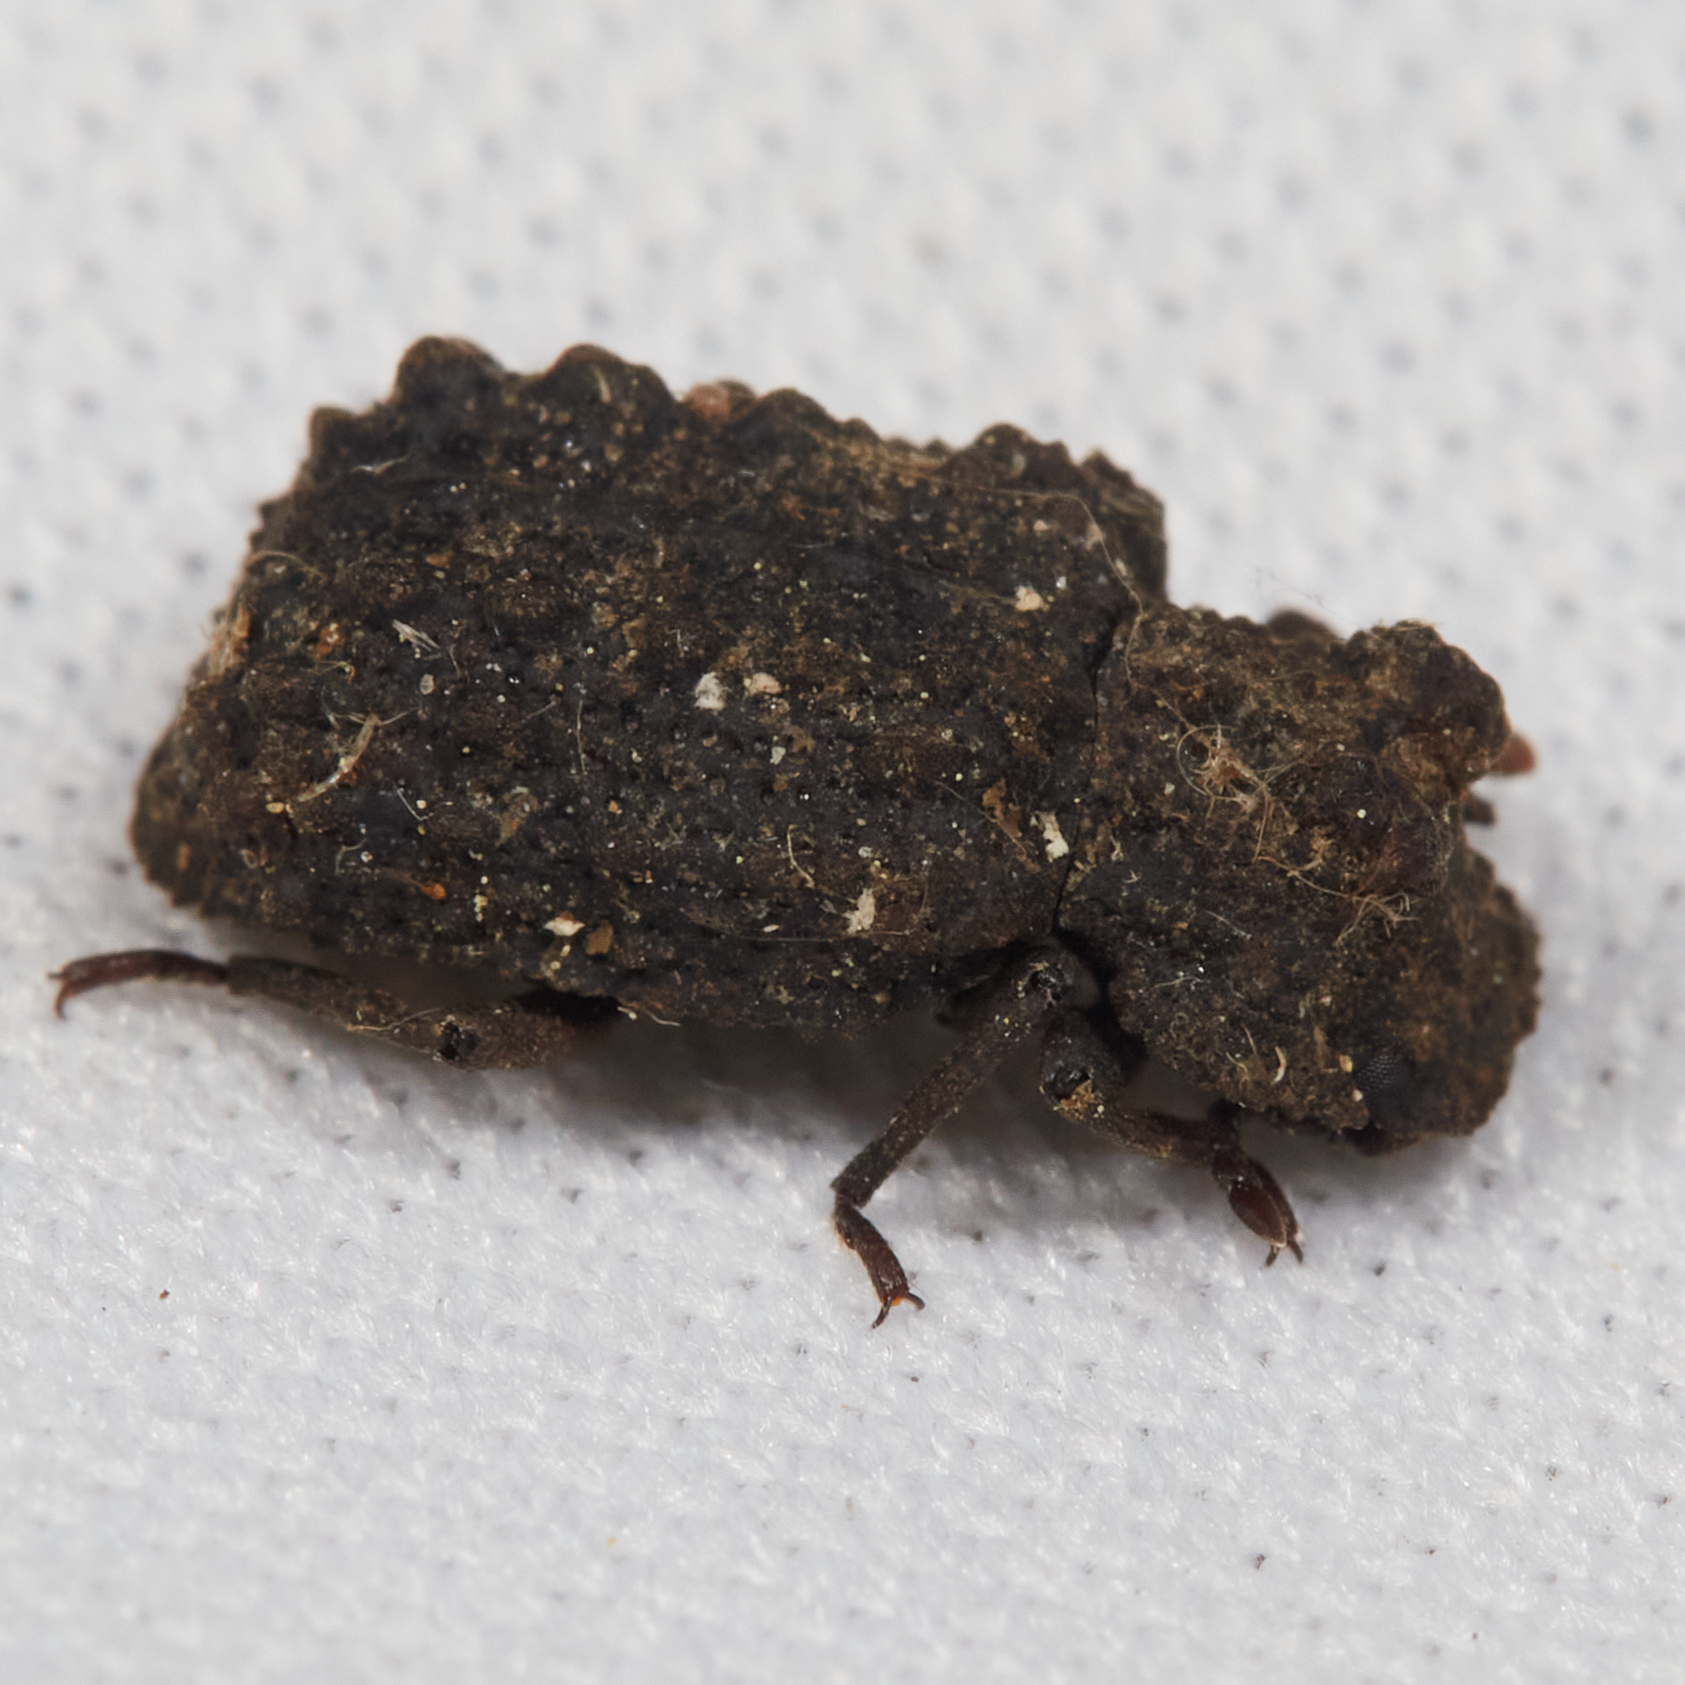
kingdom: Animalia
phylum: Arthropoda
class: Insecta
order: Coleoptera
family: Tenebrionidae
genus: Gnatocerus
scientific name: Gnatocerus cornutus
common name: Broad-horned flour beetle
